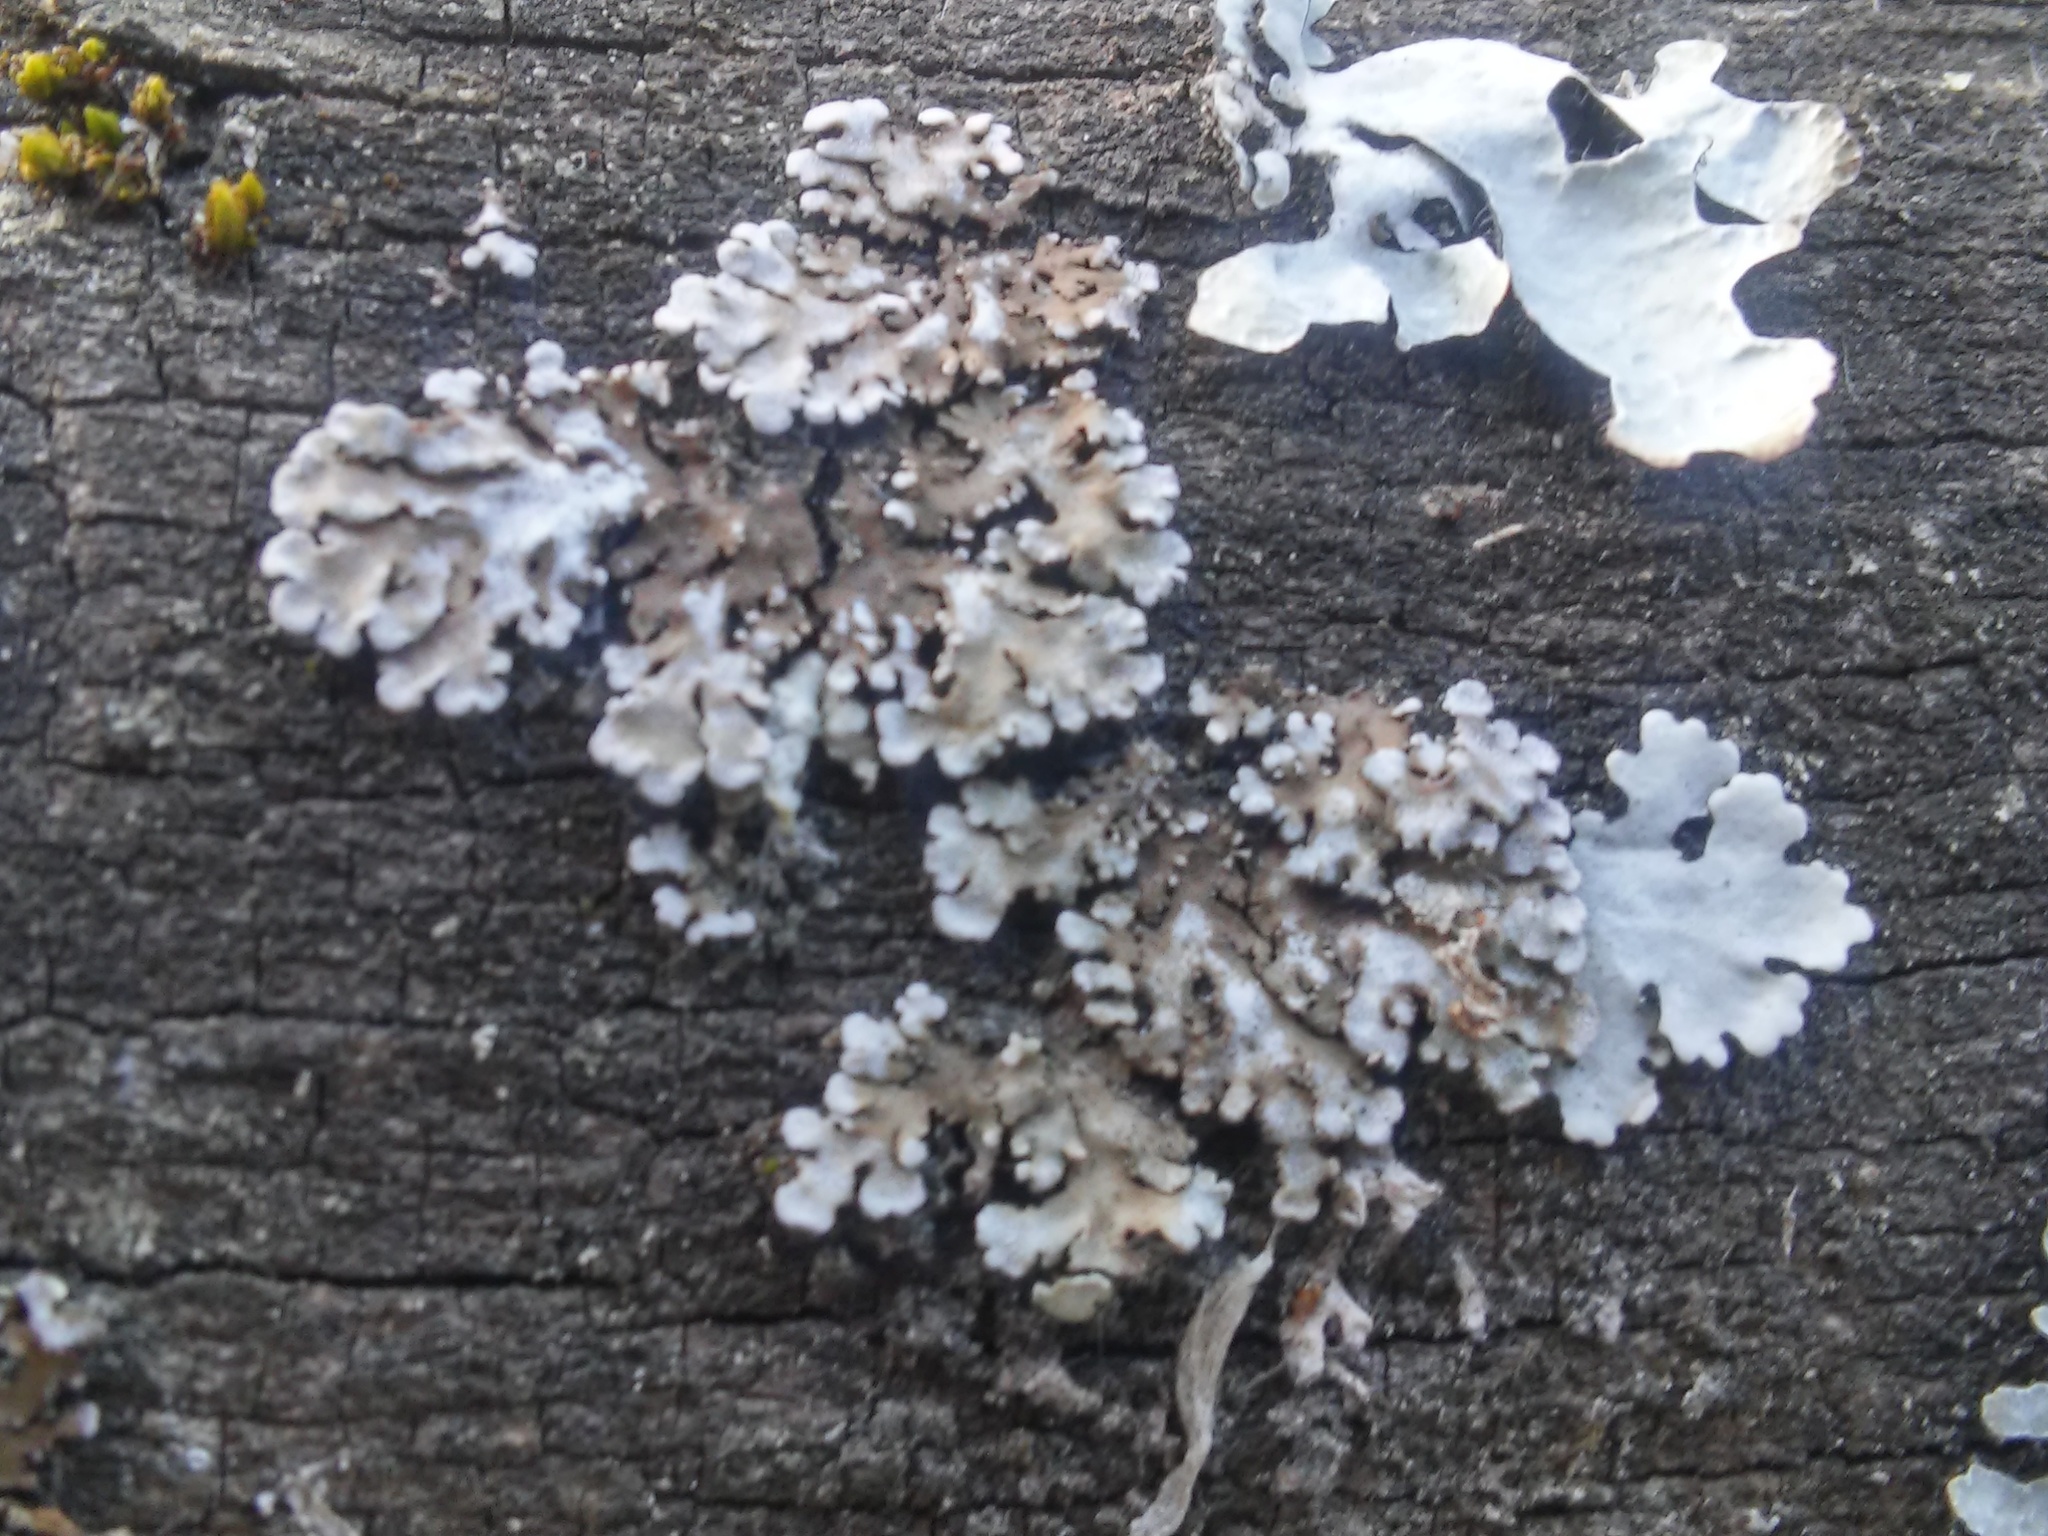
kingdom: Fungi
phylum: Ascomycota
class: Lecanoromycetes
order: Caliciales
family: Physciaceae
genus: Physconia
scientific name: Physconia enteroxantha
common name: Yellow-edged frost lichen
